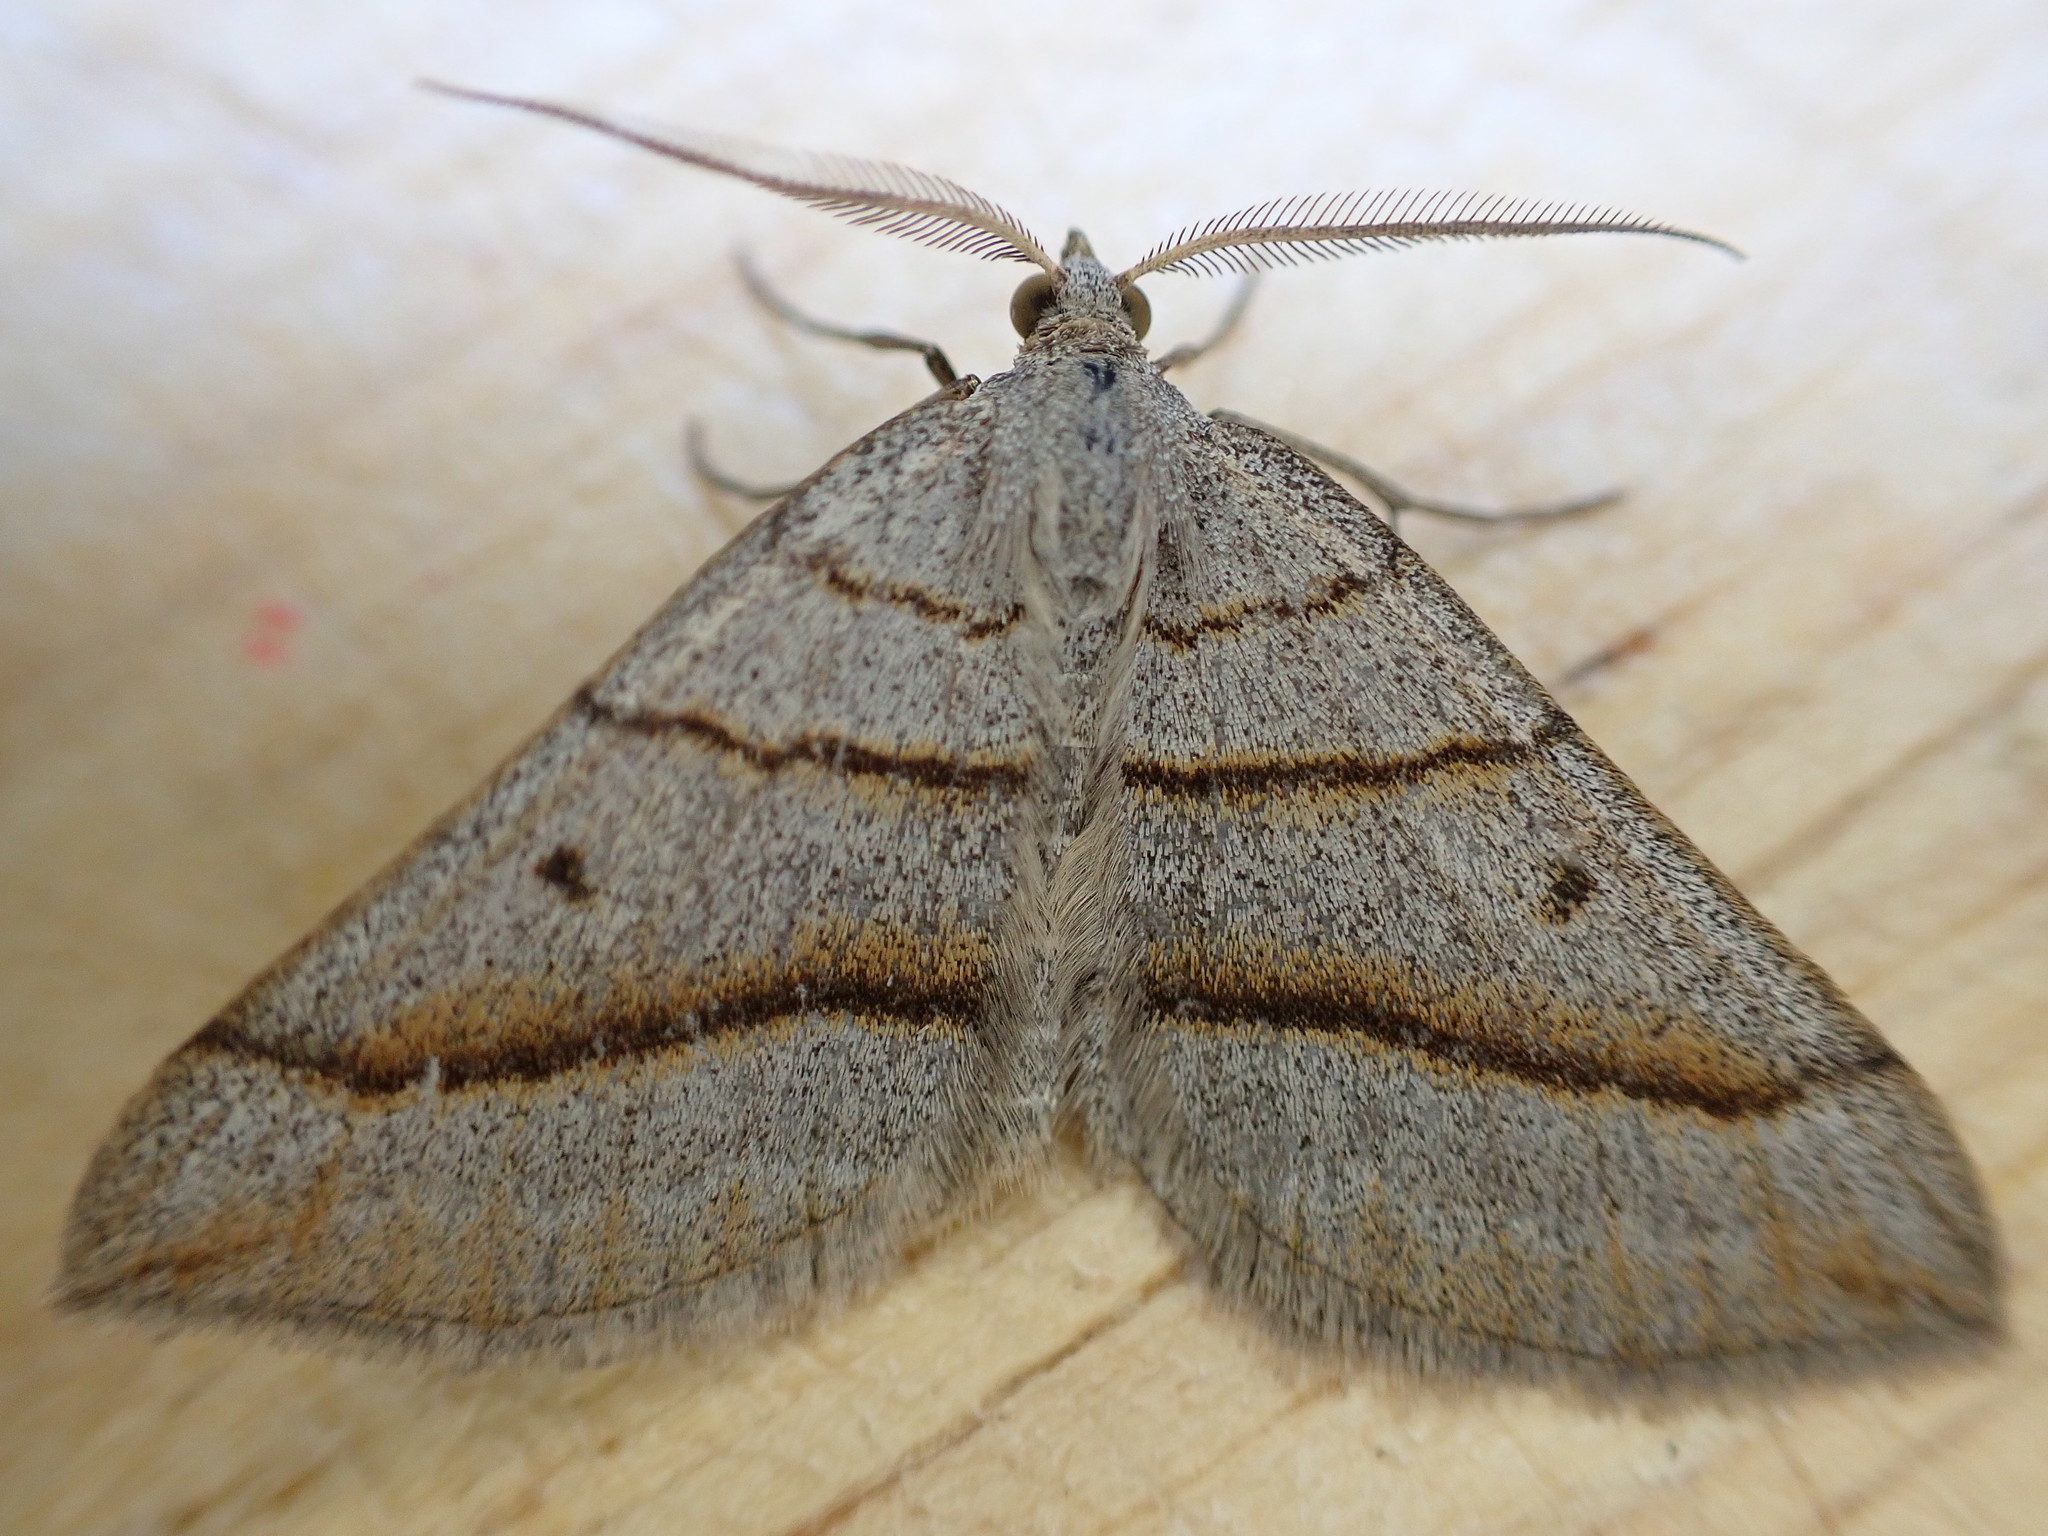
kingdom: Animalia
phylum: Arthropoda
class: Insecta
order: Lepidoptera
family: Geometridae
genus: Scotopteryx
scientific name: Scotopteryx luridata
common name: July belle
